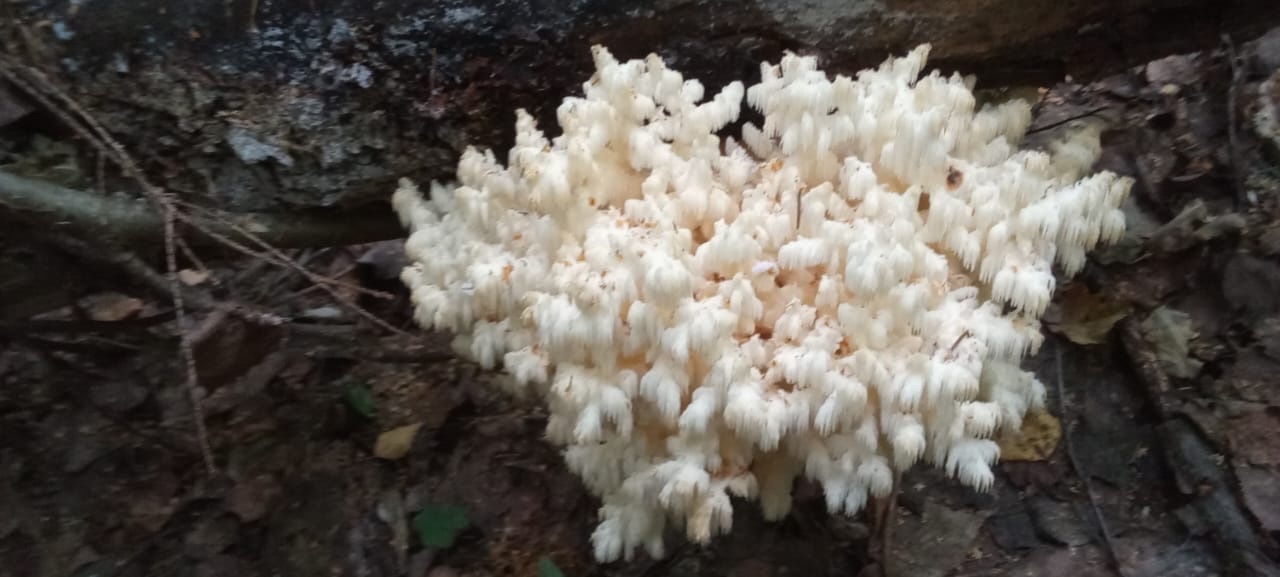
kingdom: Fungi
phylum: Basidiomycota
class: Agaricomycetes
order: Russulales
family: Hericiaceae
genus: Hericium
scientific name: Hericium coralloides
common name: Coral tooth
